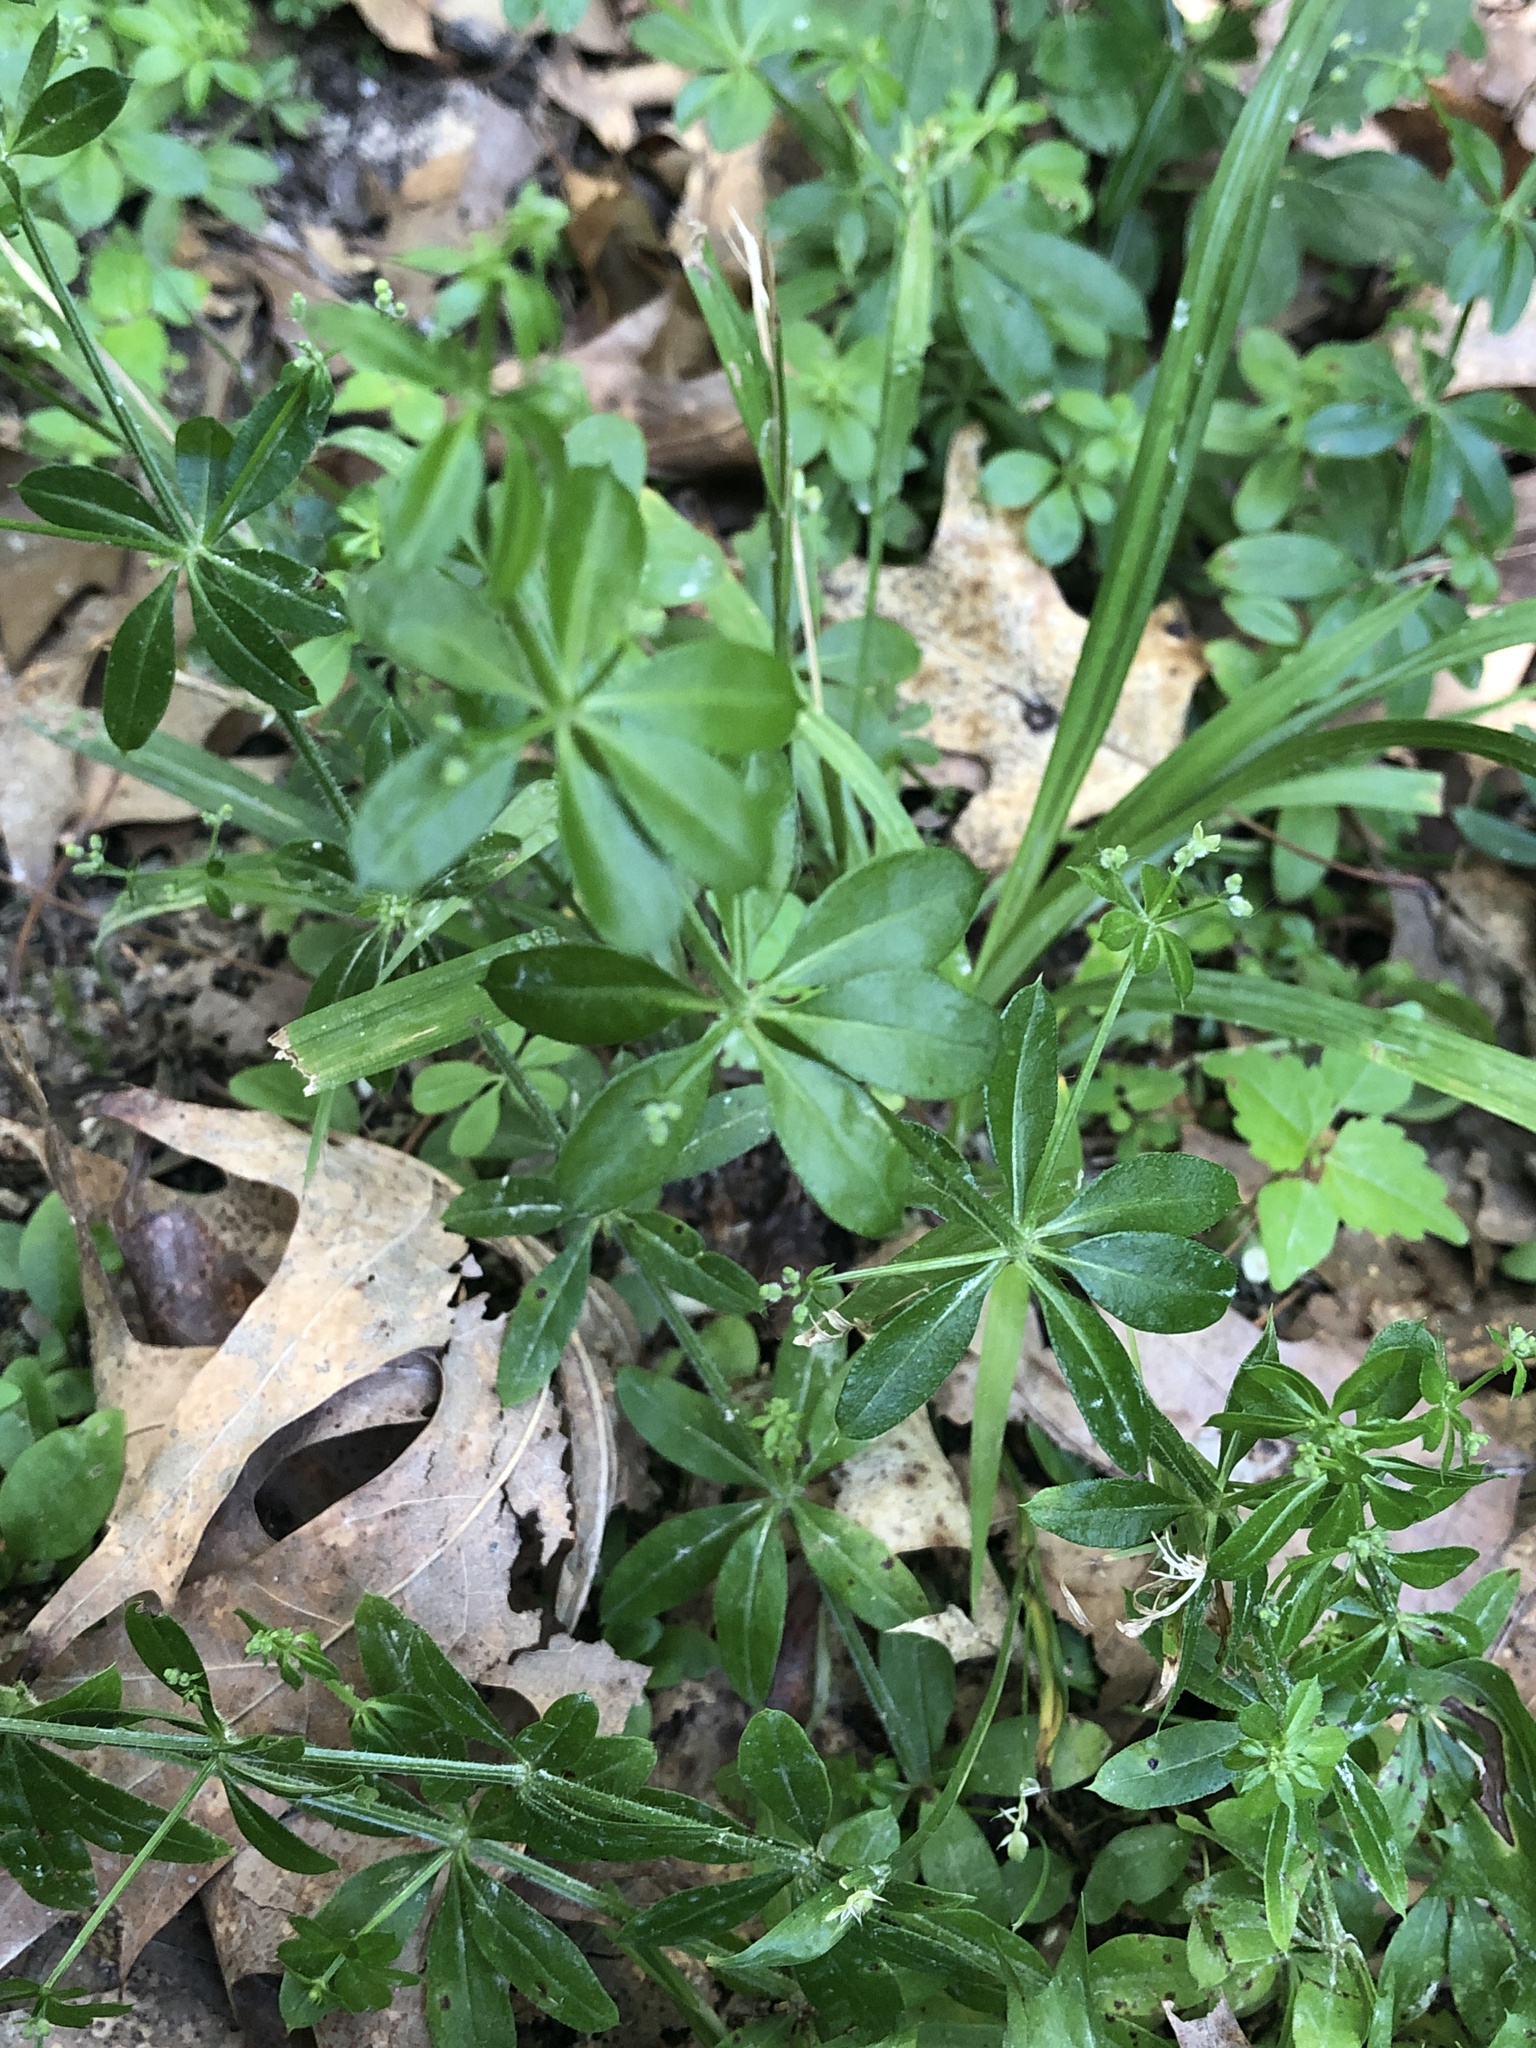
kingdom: Plantae
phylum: Tracheophyta
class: Magnoliopsida
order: Gentianales
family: Rubiaceae
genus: Galium
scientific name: Galium triflorum
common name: Fragrant bedstraw
